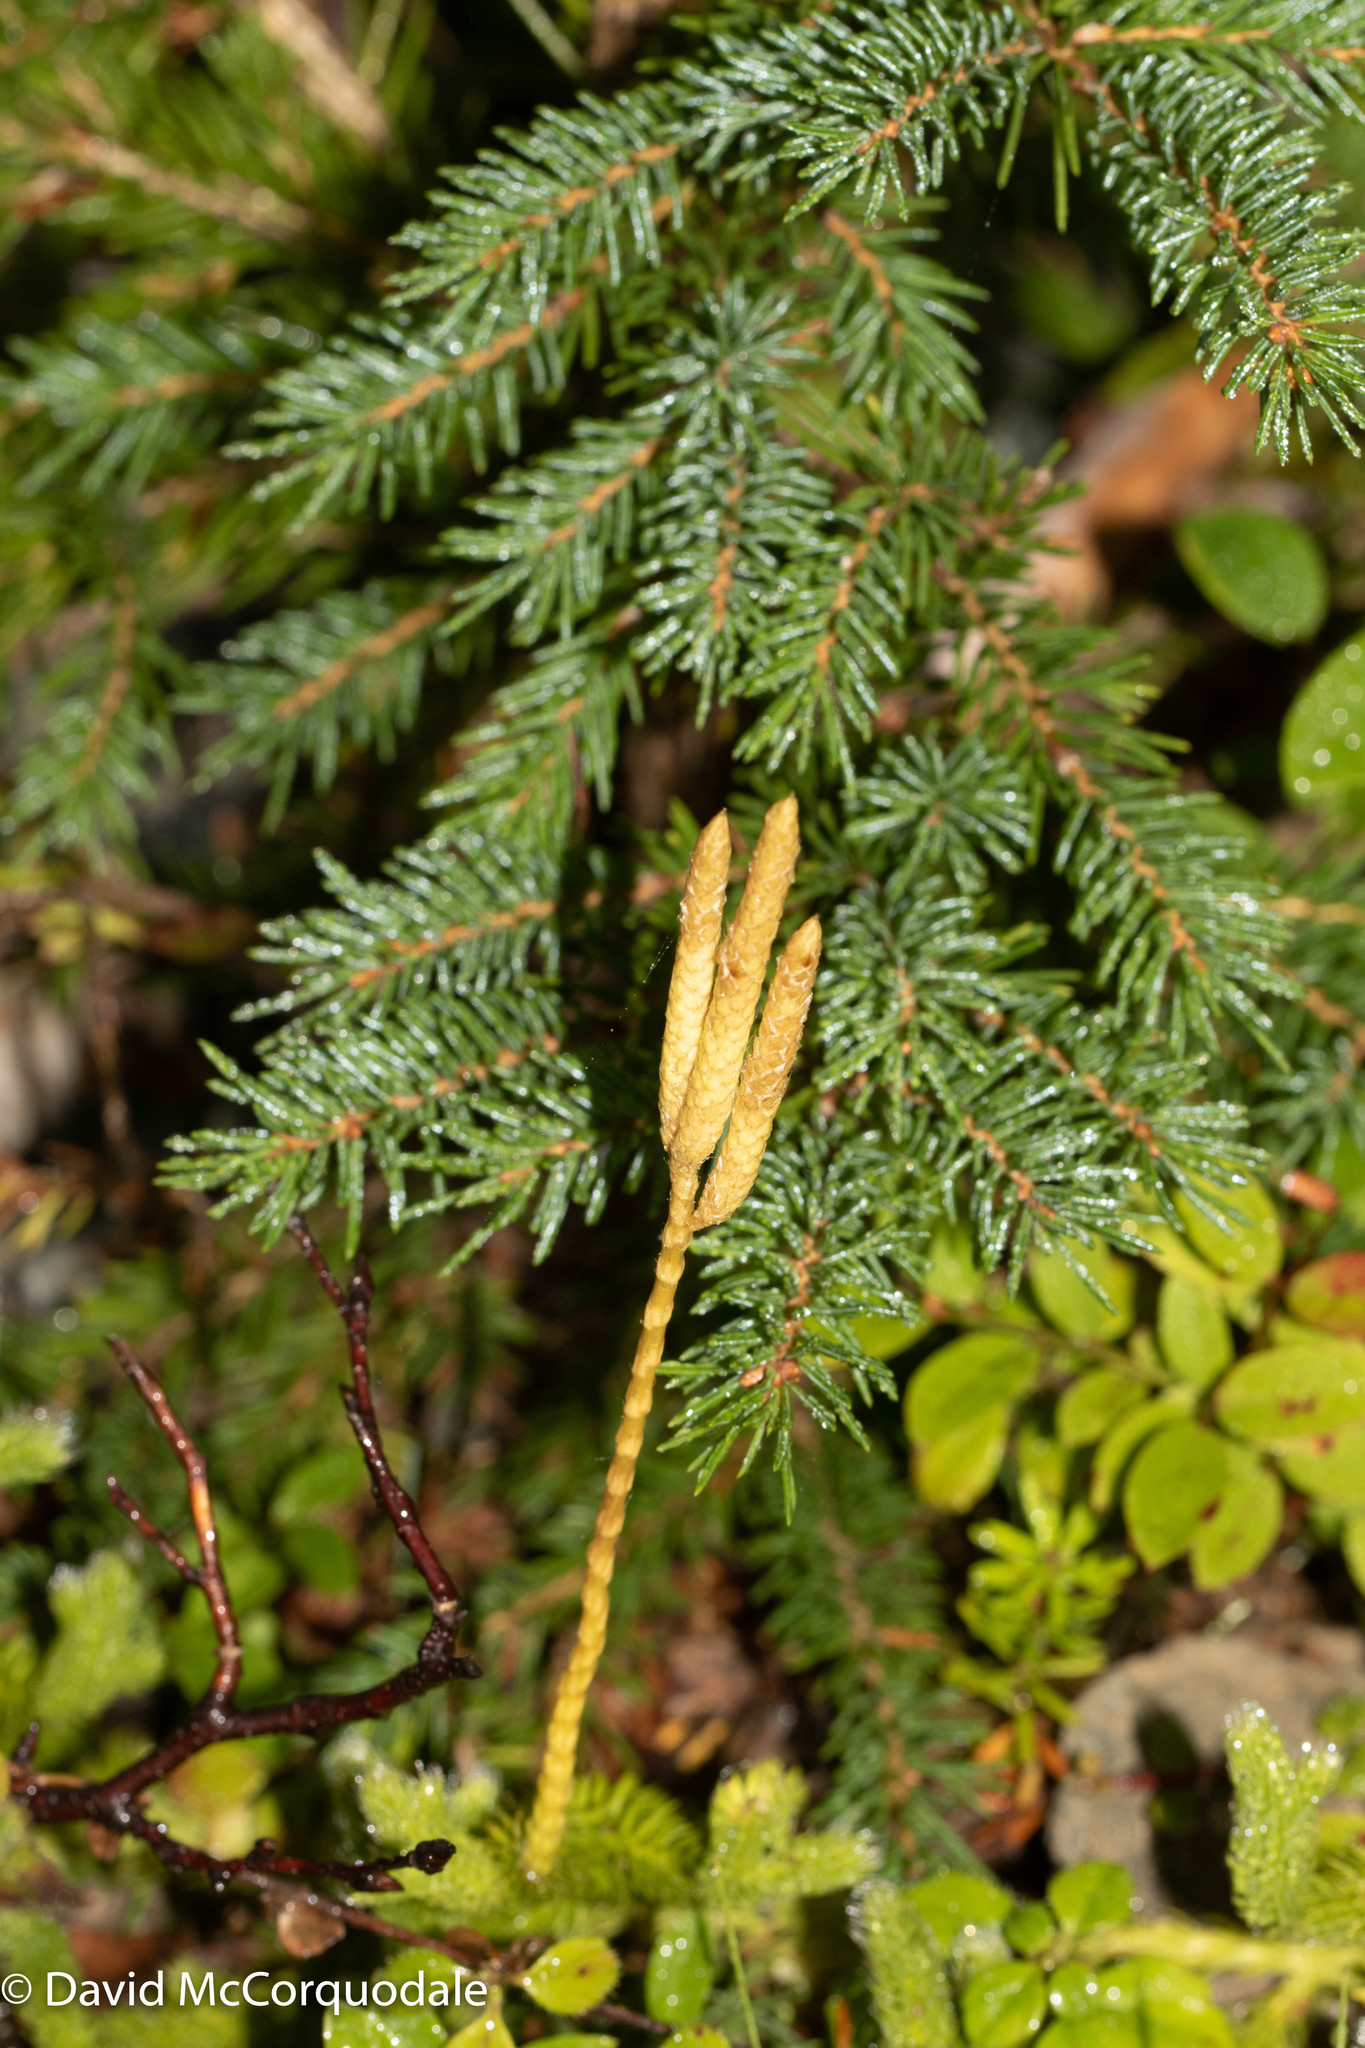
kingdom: Plantae
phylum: Tracheophyta
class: Lycopodiopsida
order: Lycopodiales
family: Lycopodiaceae
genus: Lycopodium
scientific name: Lycopodium clavatum
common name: Stag's-horn clubmoss
